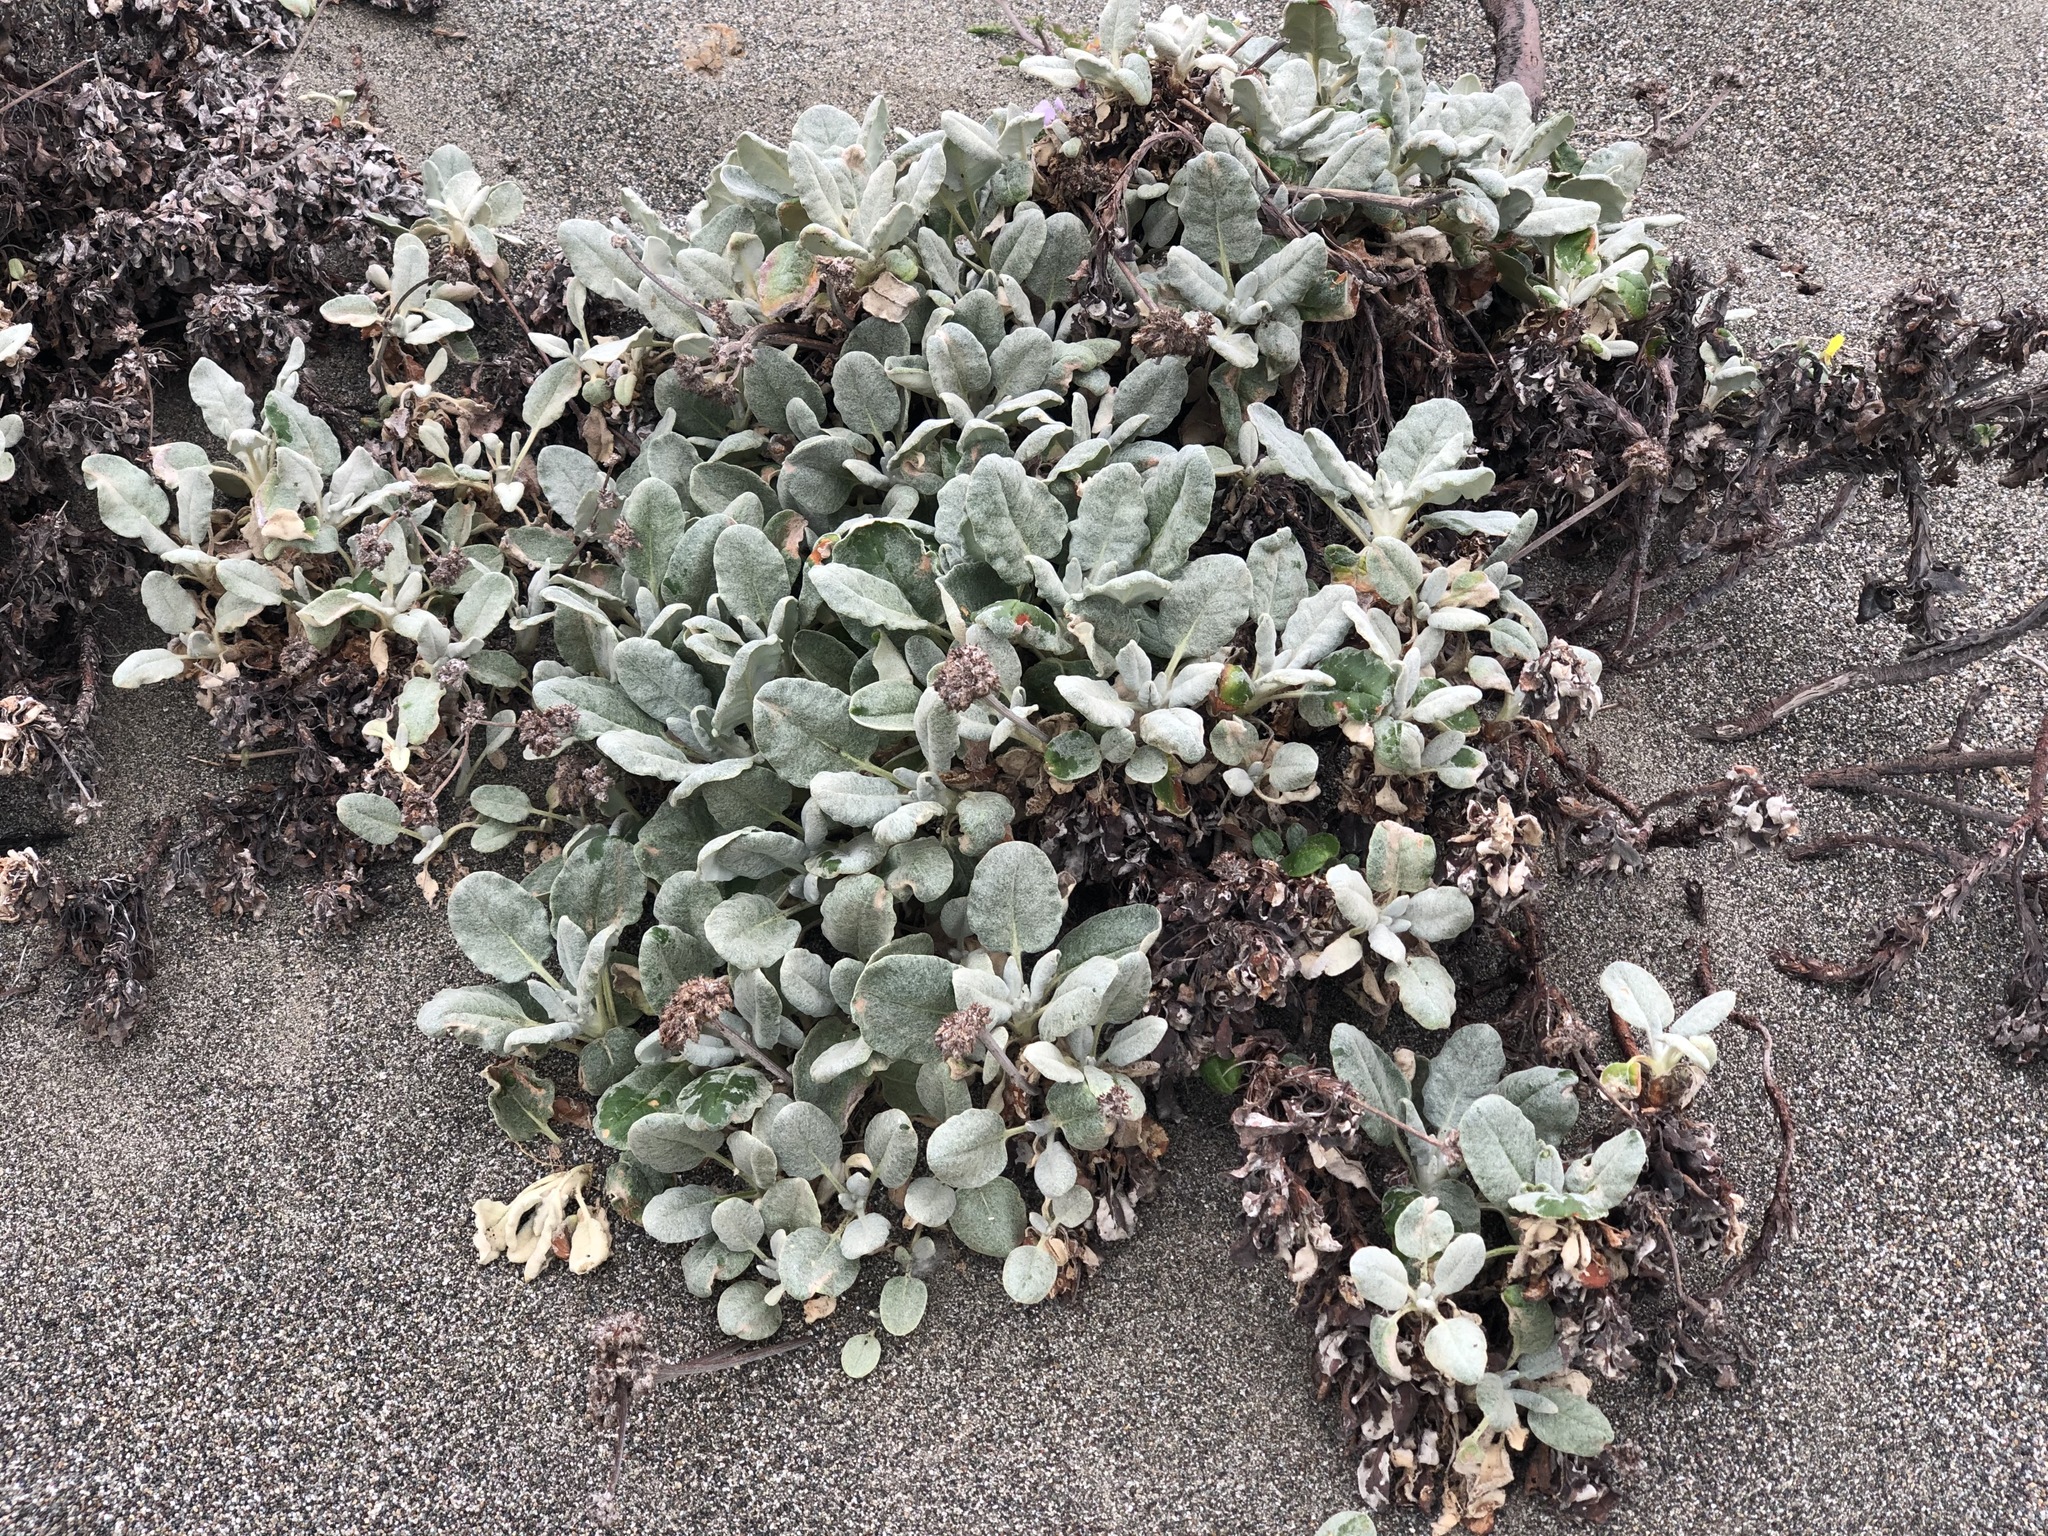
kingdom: Plantae
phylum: Tracheophyta
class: Magnoliopsida
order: Caryophyllales
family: Polygonaceae
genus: Eriogonum
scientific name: Eriogonum latifolium
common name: Seaside wild buckwheat
